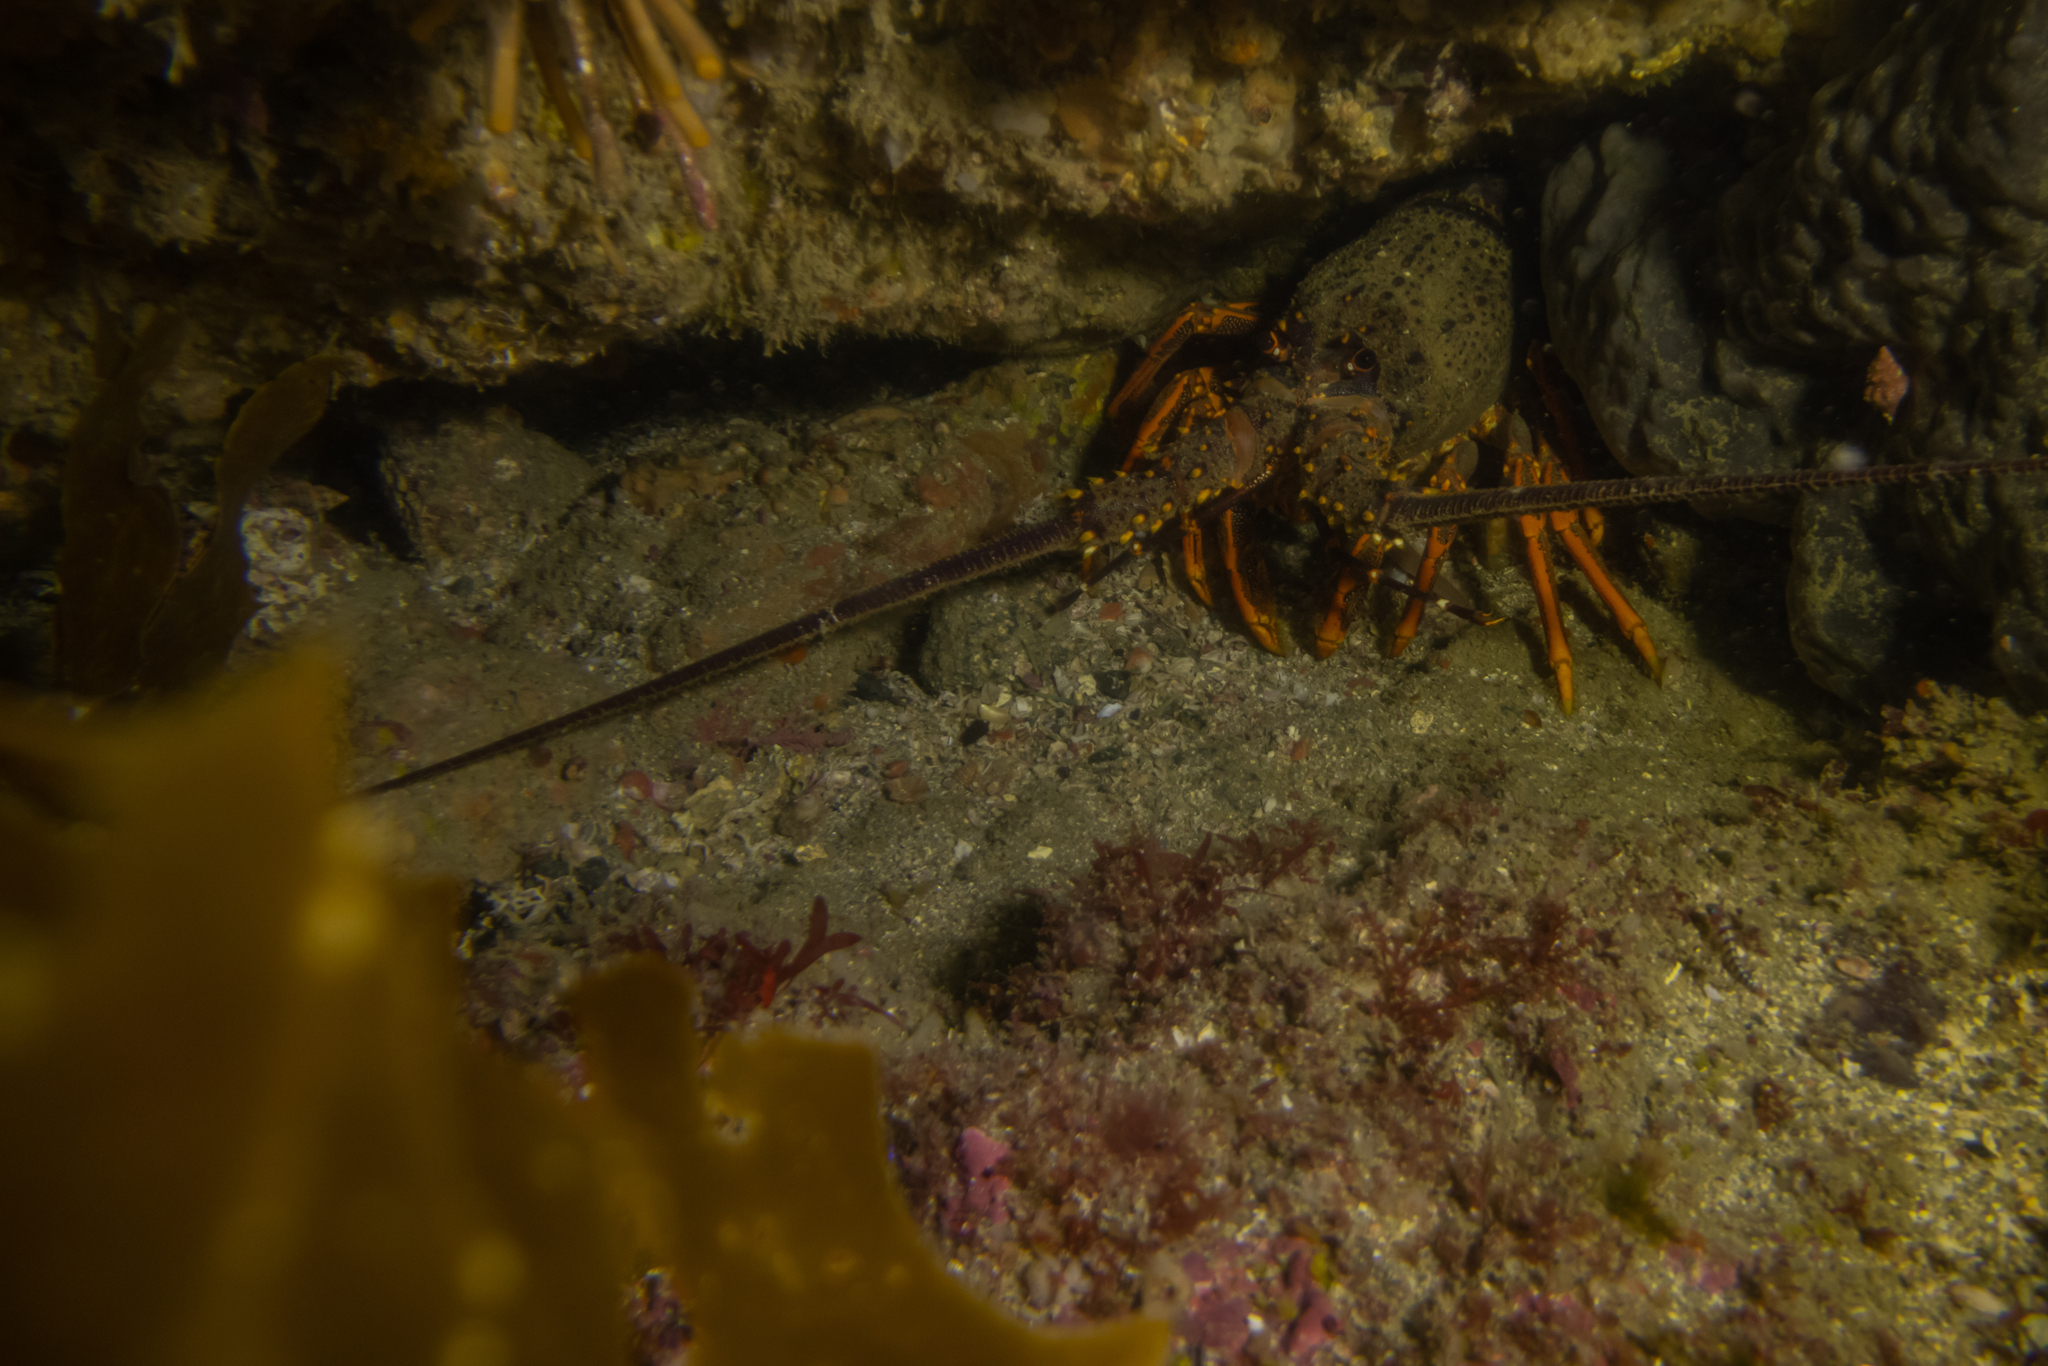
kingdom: Animalia
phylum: Arthropoda
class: Malacostraca
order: Decapoda
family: Palinuridae
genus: Jasus
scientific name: Jasus edwardsii
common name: Red rock lobster
